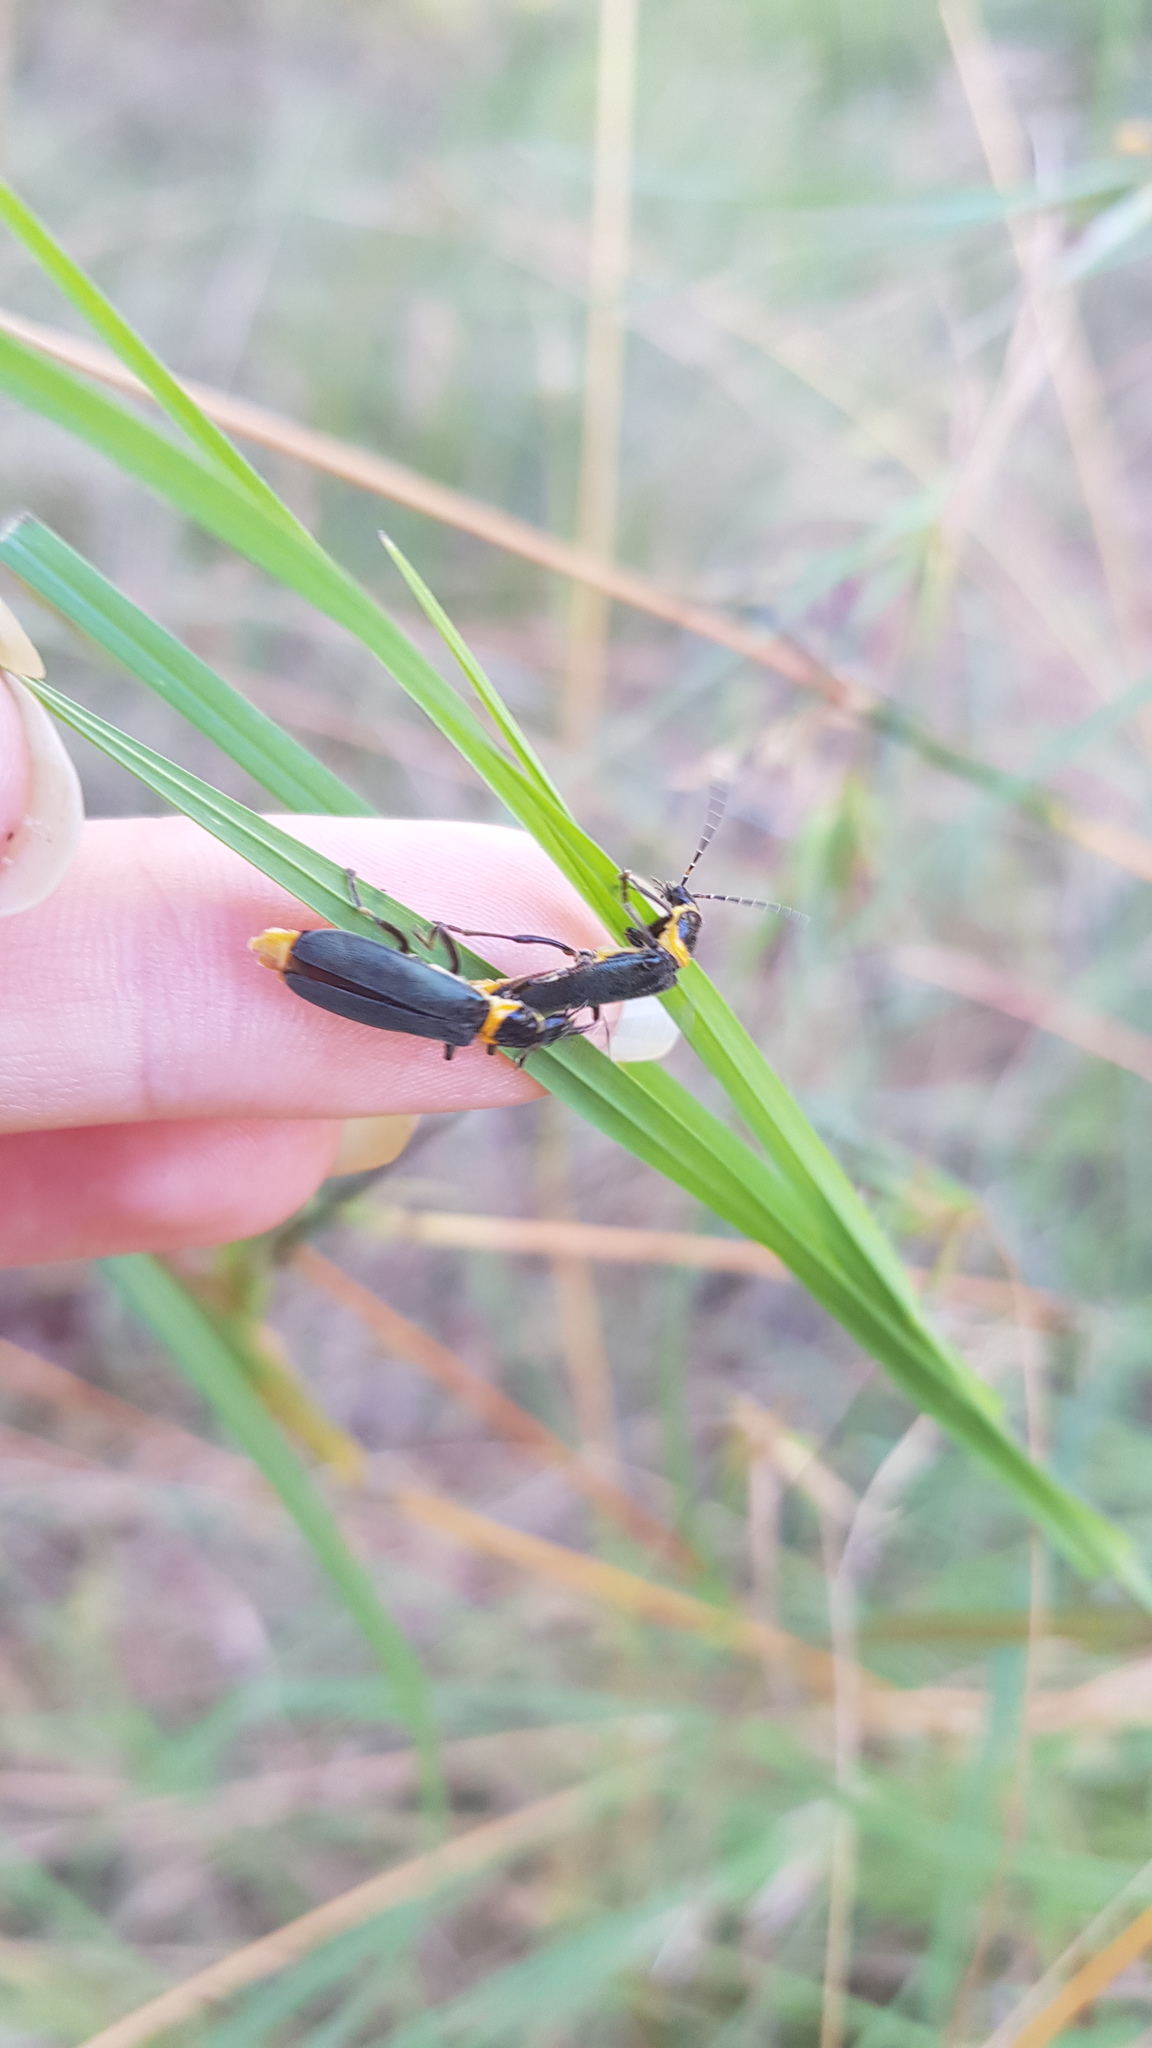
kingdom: Animalia
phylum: Arthropoda
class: Insecta
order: Coleoptera
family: Cantharidae
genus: Chauliognathus
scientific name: Chauliognathus
